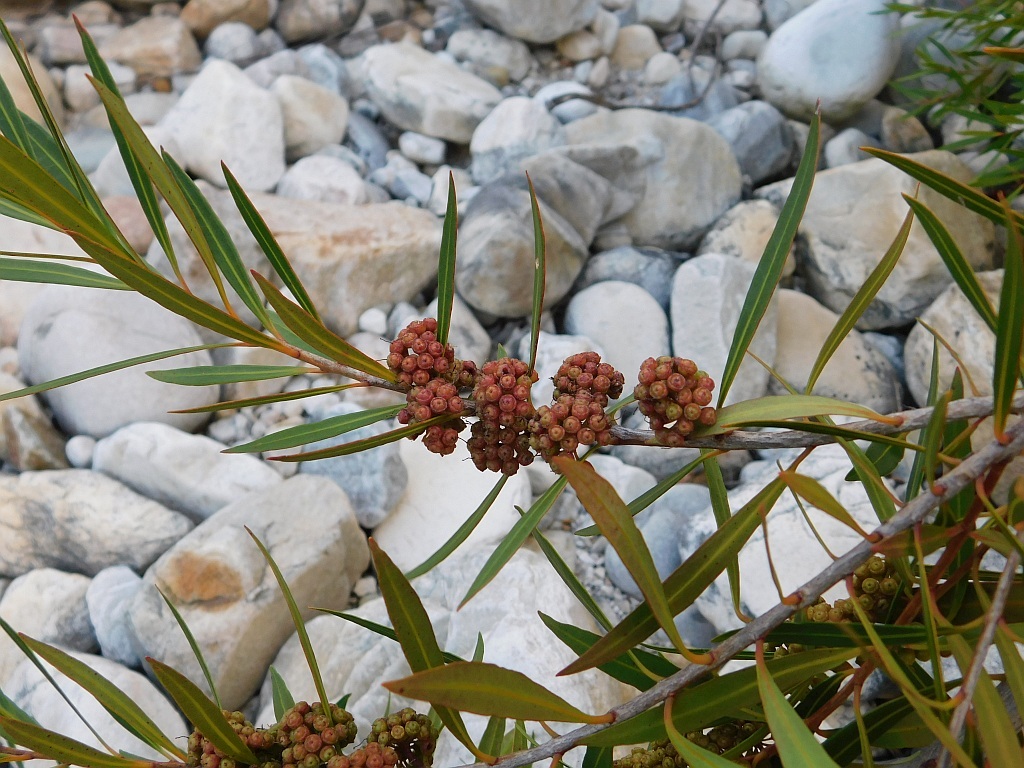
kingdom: Plantae
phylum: Tracheophyta
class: Magnoliopsida
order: Myrtales
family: Myrtaceae
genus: Callistemon
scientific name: Callistemon lanceolatus
